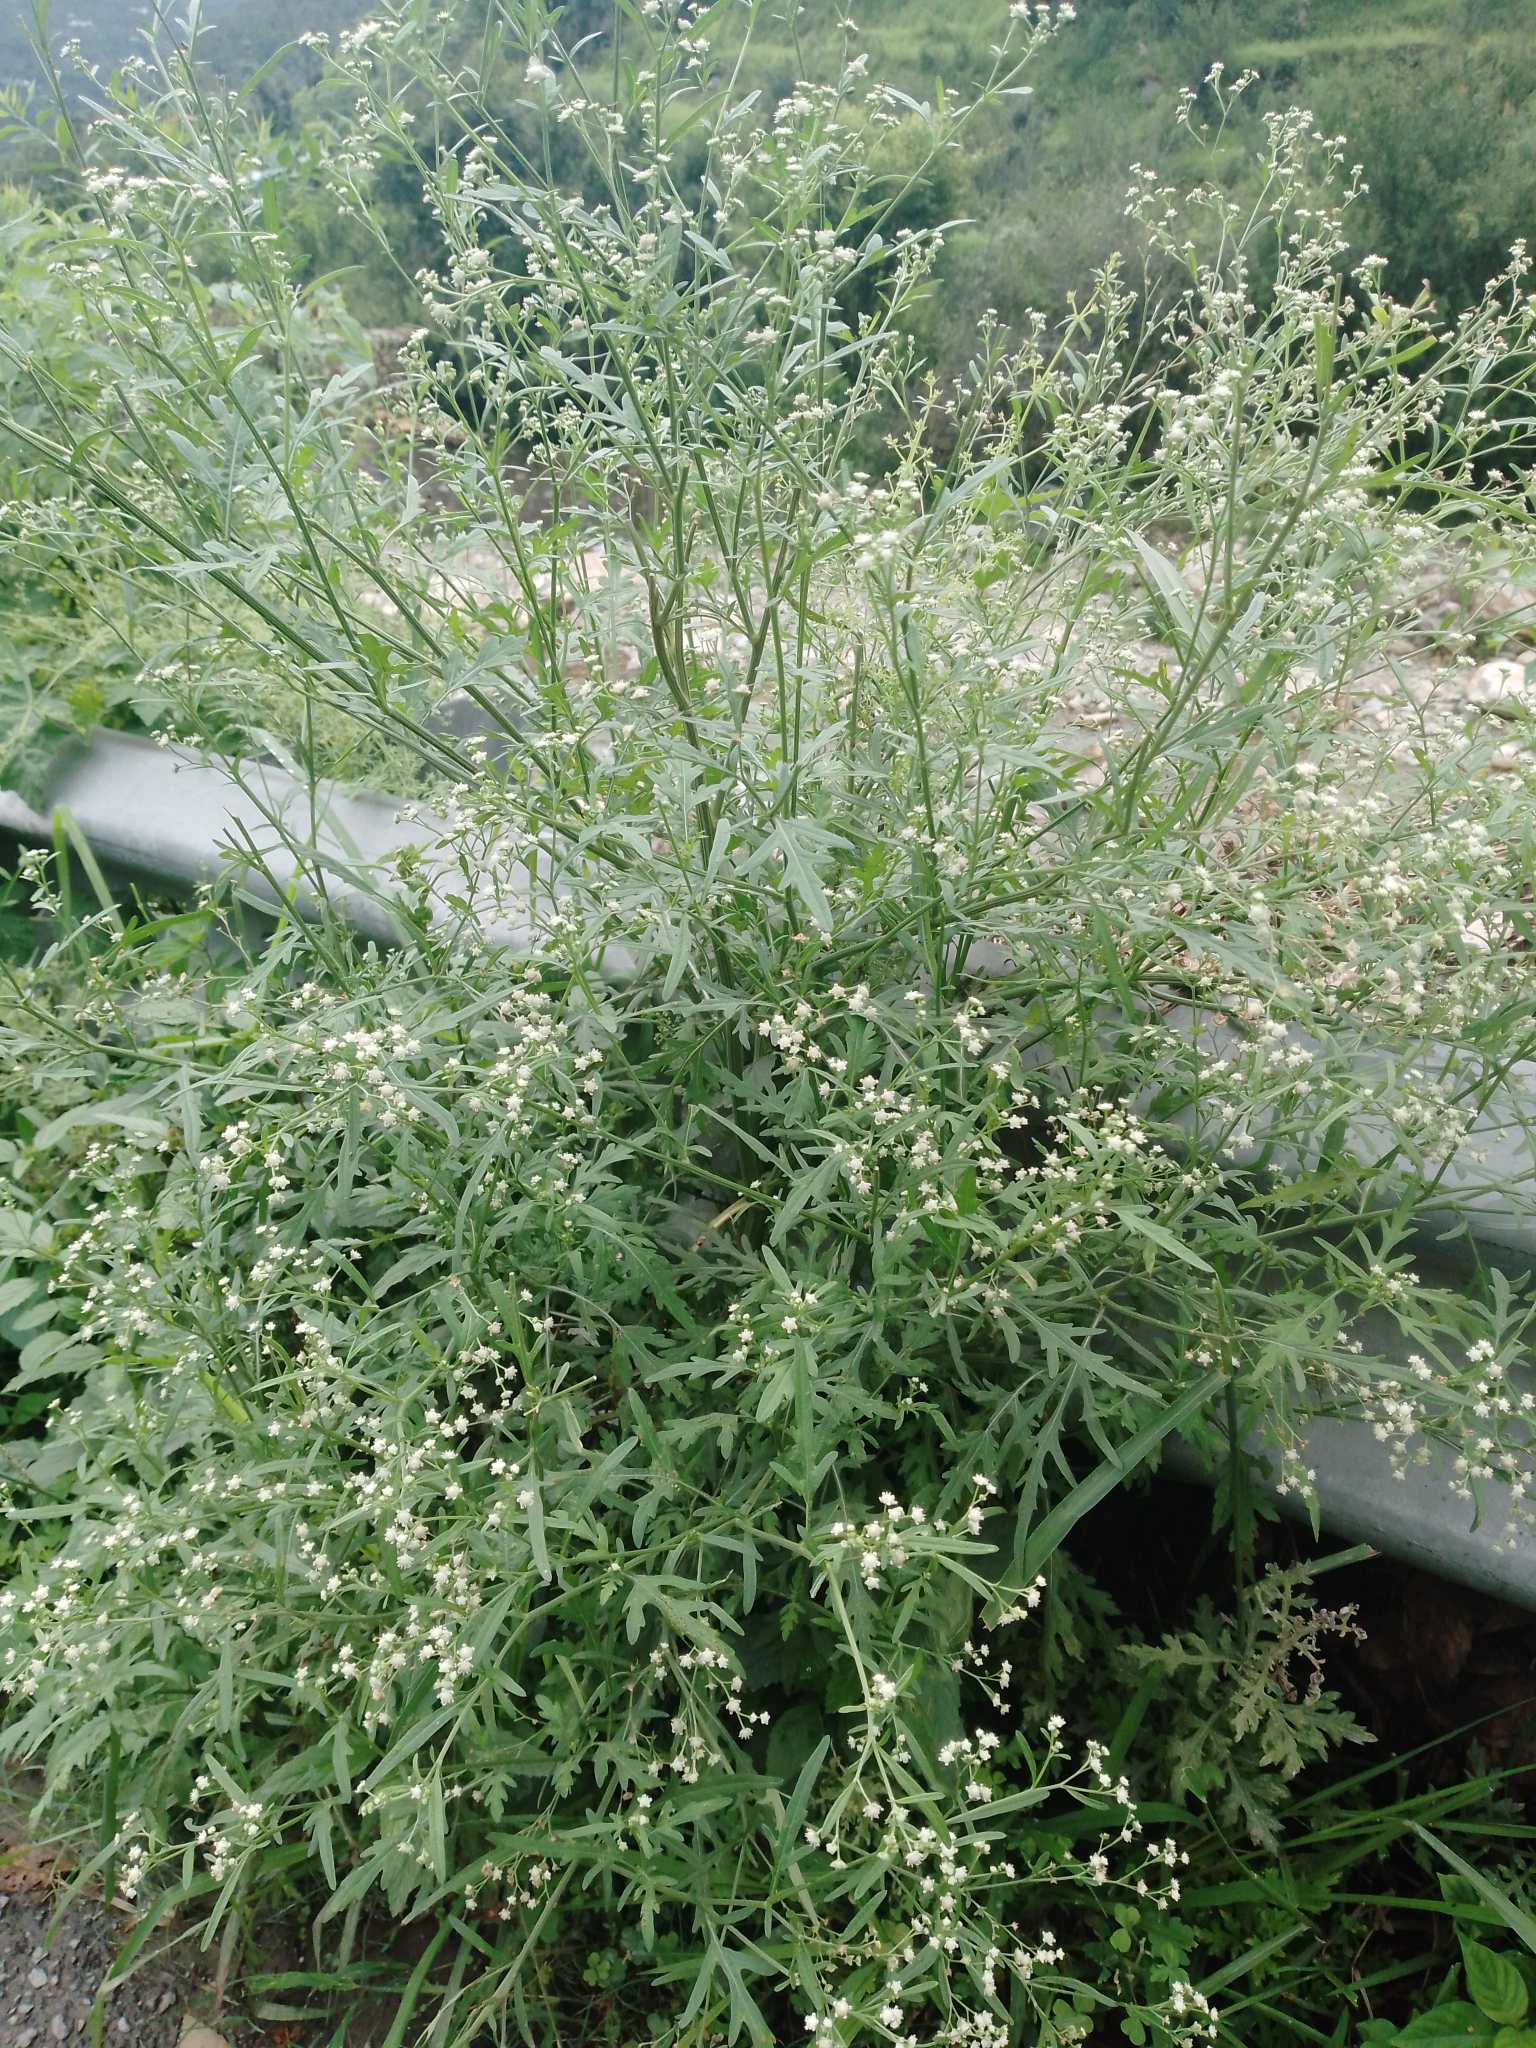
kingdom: Plantae
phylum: Tracheophyta
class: Magnoliopsida
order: Asterales
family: Asteraceae
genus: Parthenium
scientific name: Parthenium hysterophorus
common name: Santa maria feverfew
